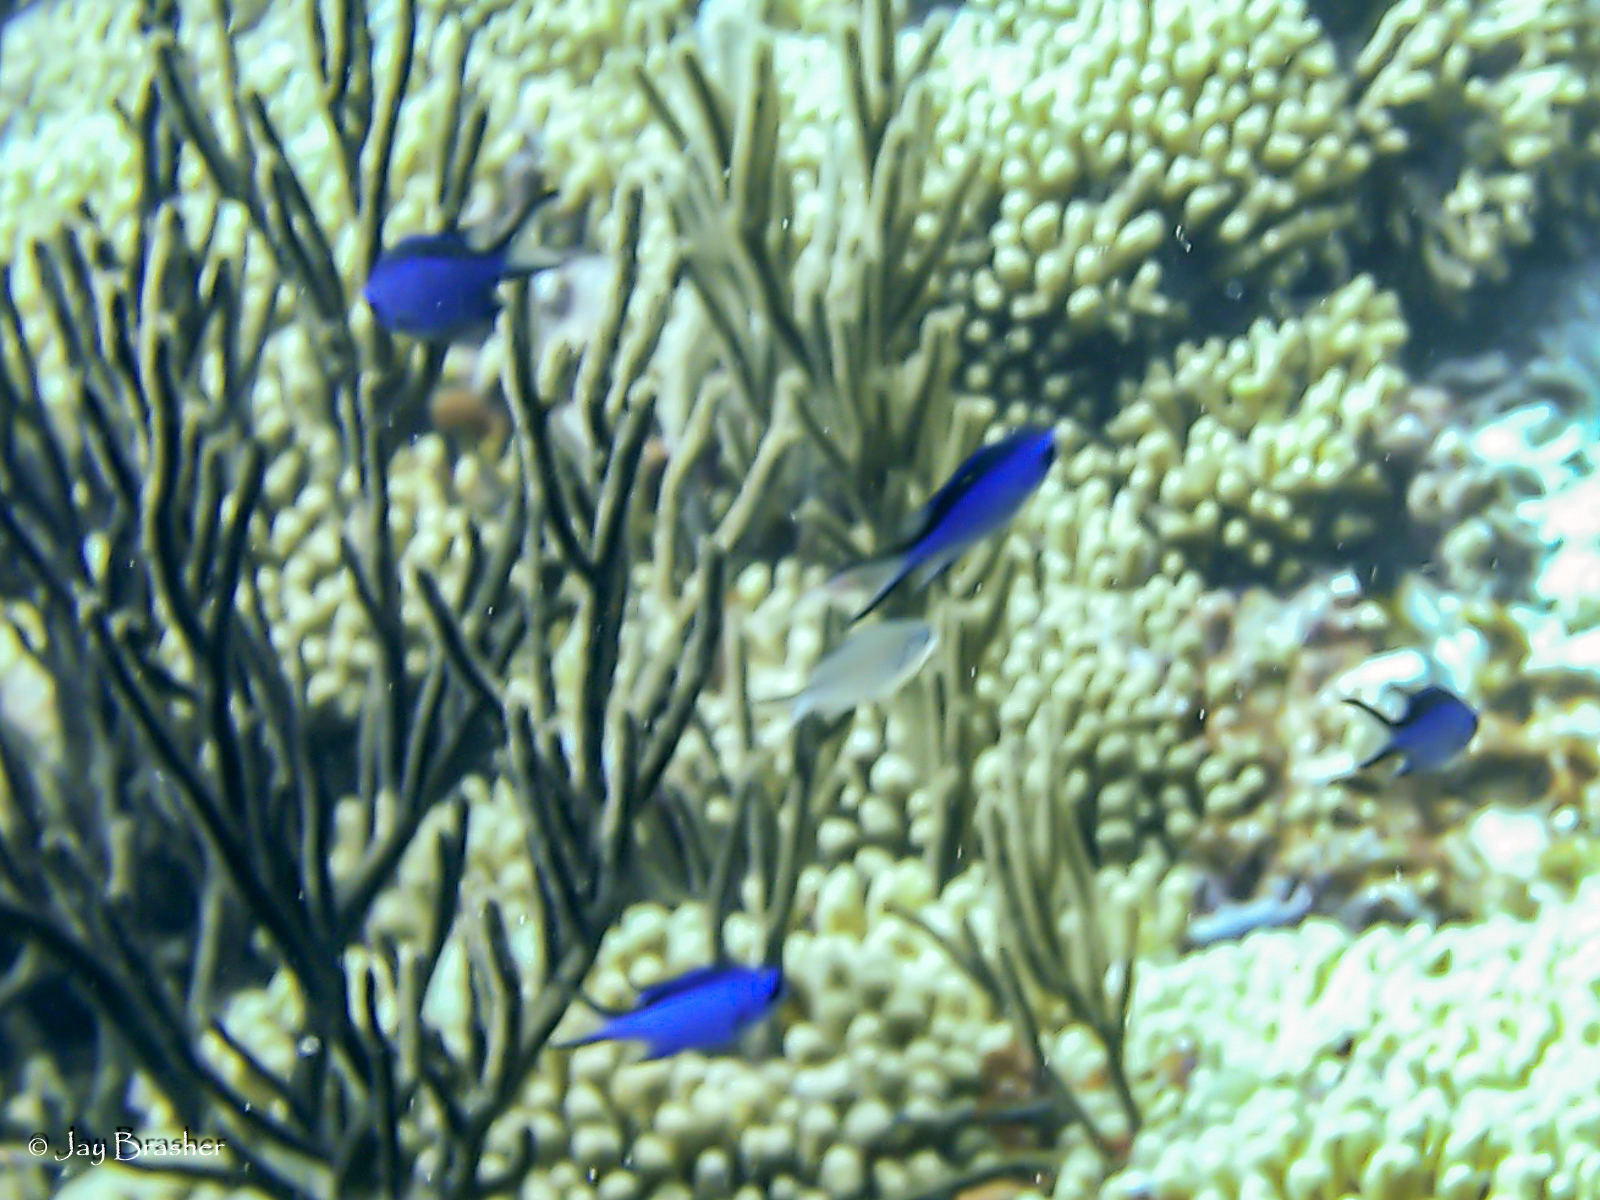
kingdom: Animalia
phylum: Chordata
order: Perciformes
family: Pomacentridae
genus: Chromis
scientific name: Chromis cyanea
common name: Blue chromis
